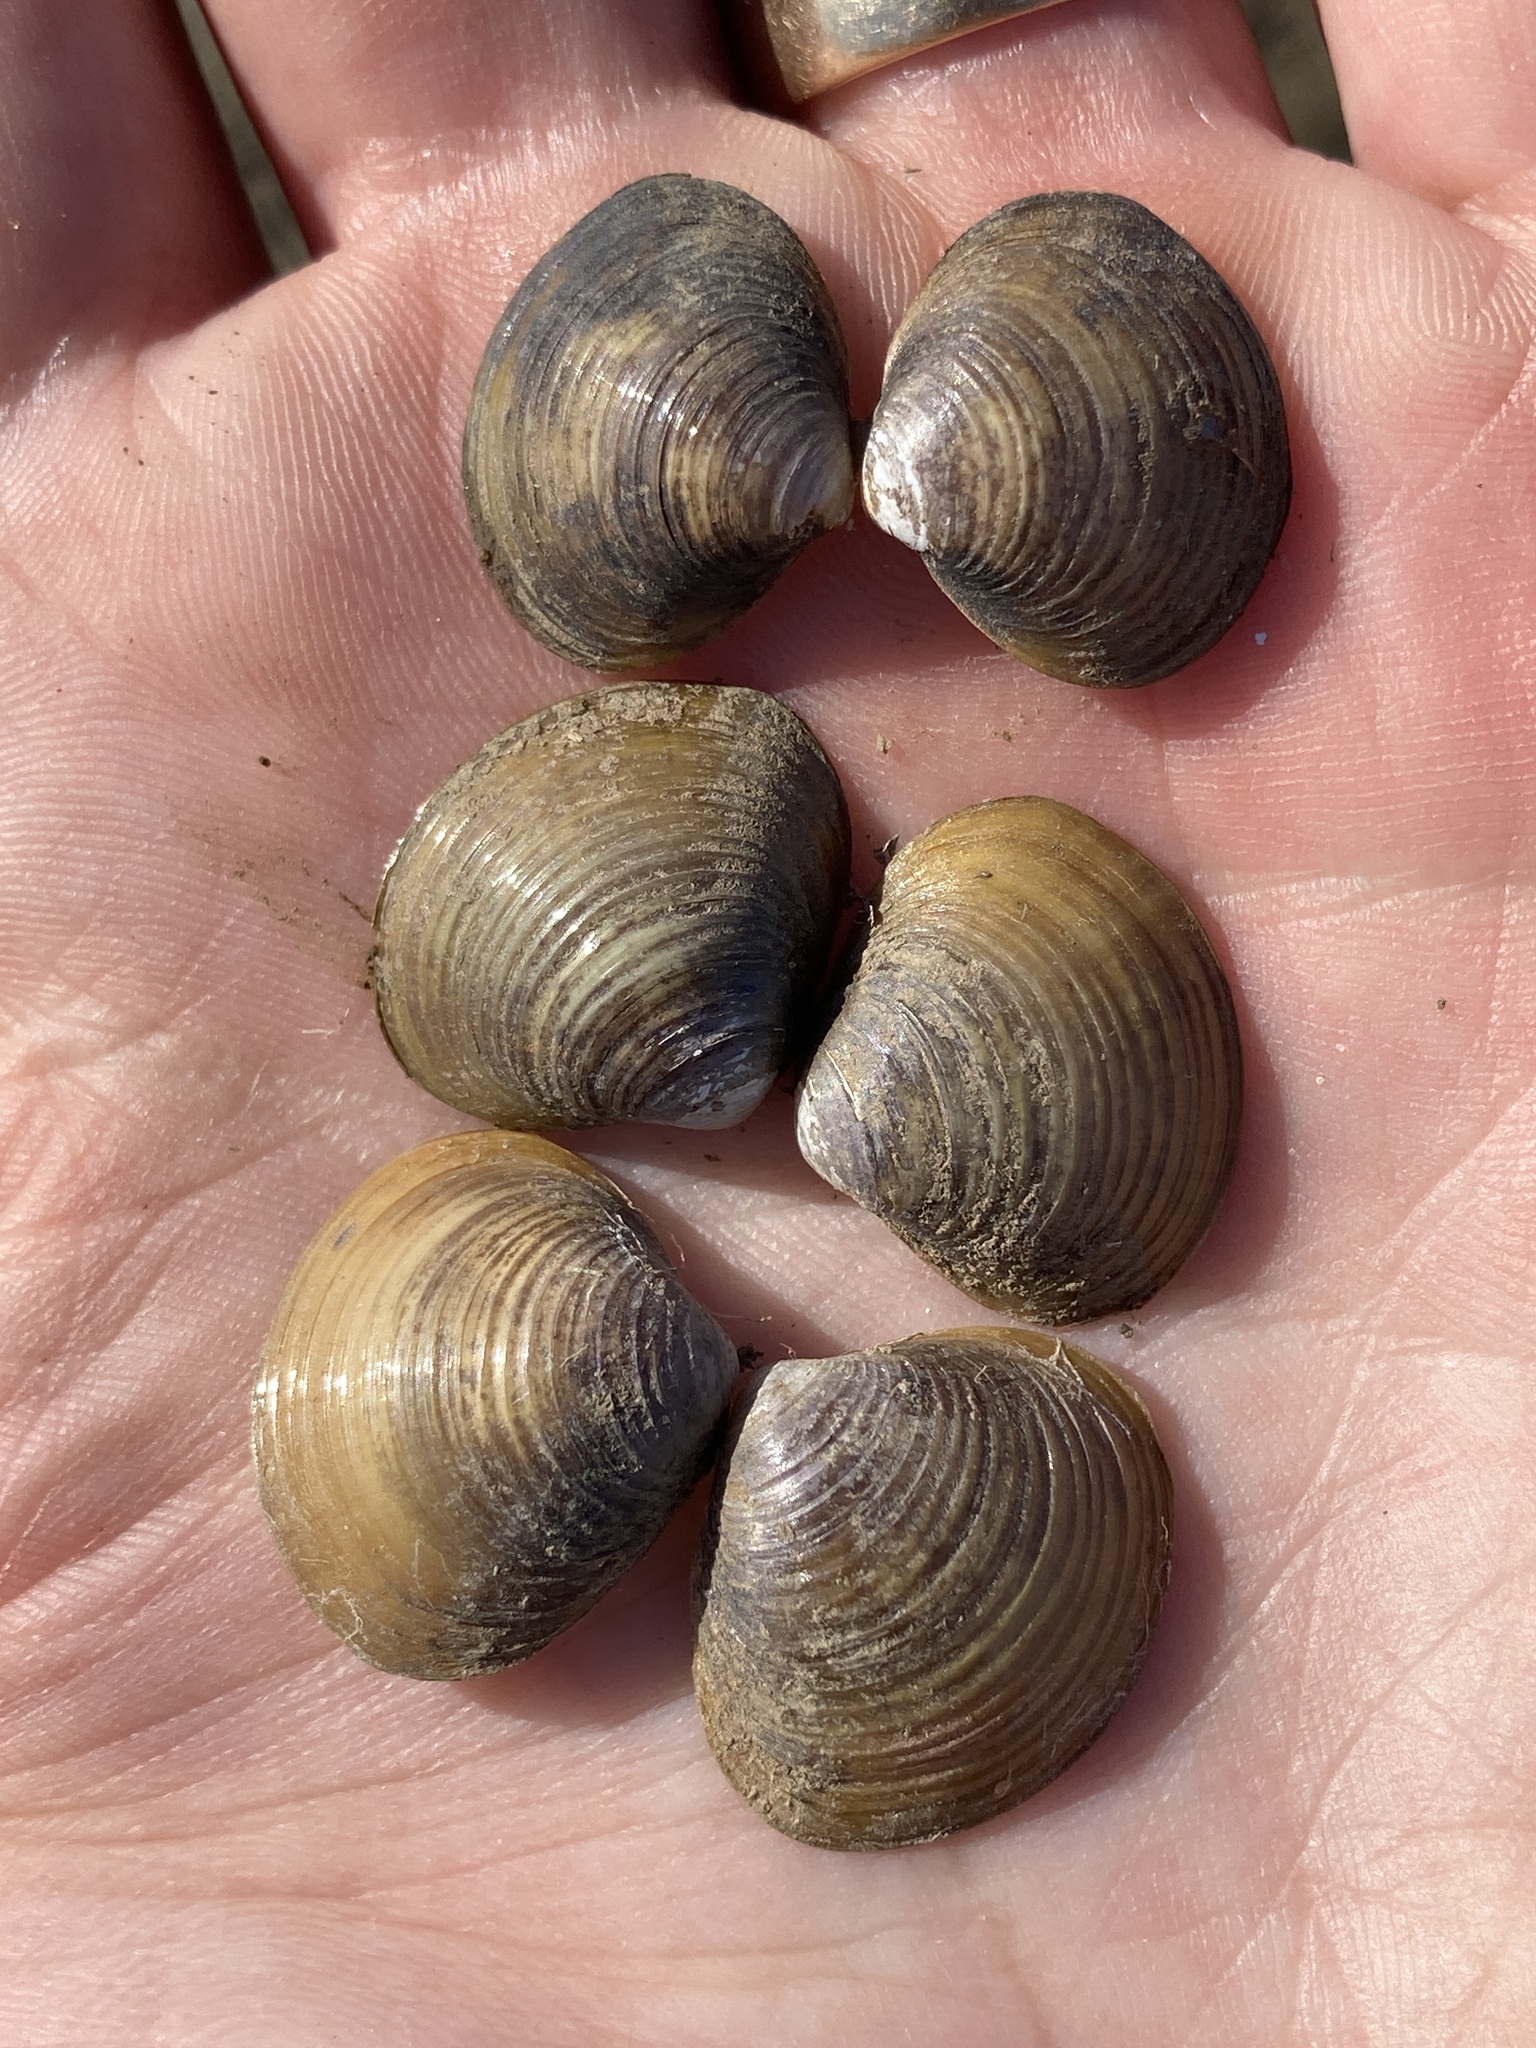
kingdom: Animalia
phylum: Mollusca
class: Bivalvia
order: Venerida
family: Cyrenidae
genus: Corbicula
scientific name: Corbicula fluminea
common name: Asian clam
